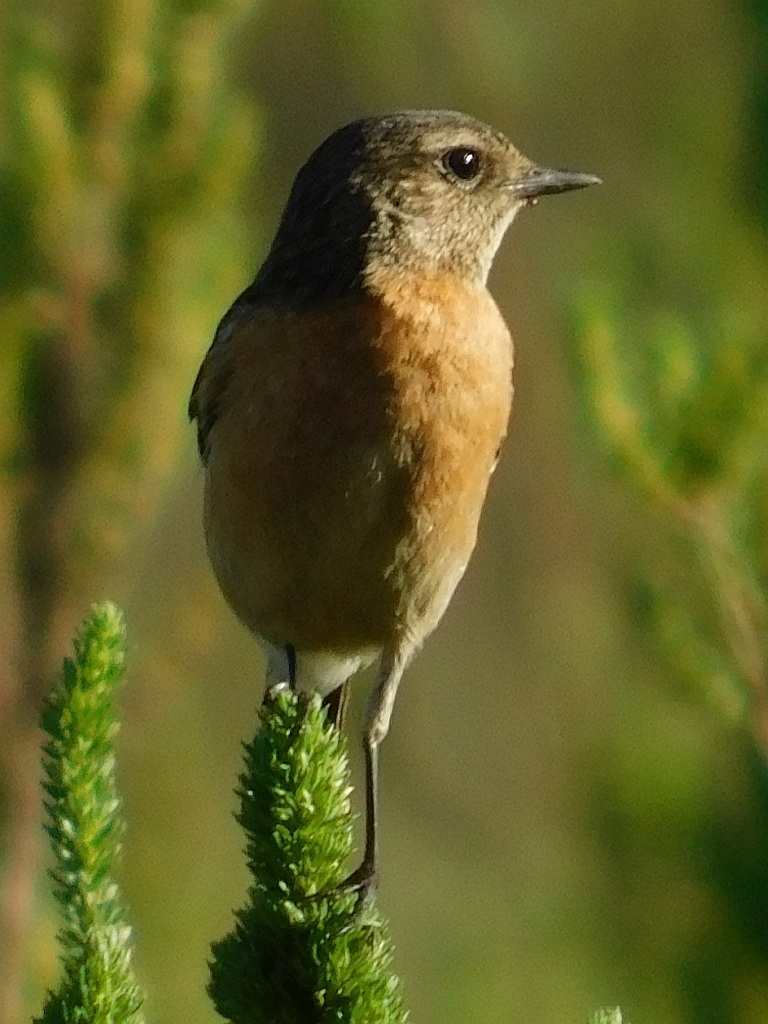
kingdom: Animalia
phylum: Chordata
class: Aves
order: Passeriformes
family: Muscicapidae
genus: Saxicola
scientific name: Saxicola torquatus
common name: African stonechat
